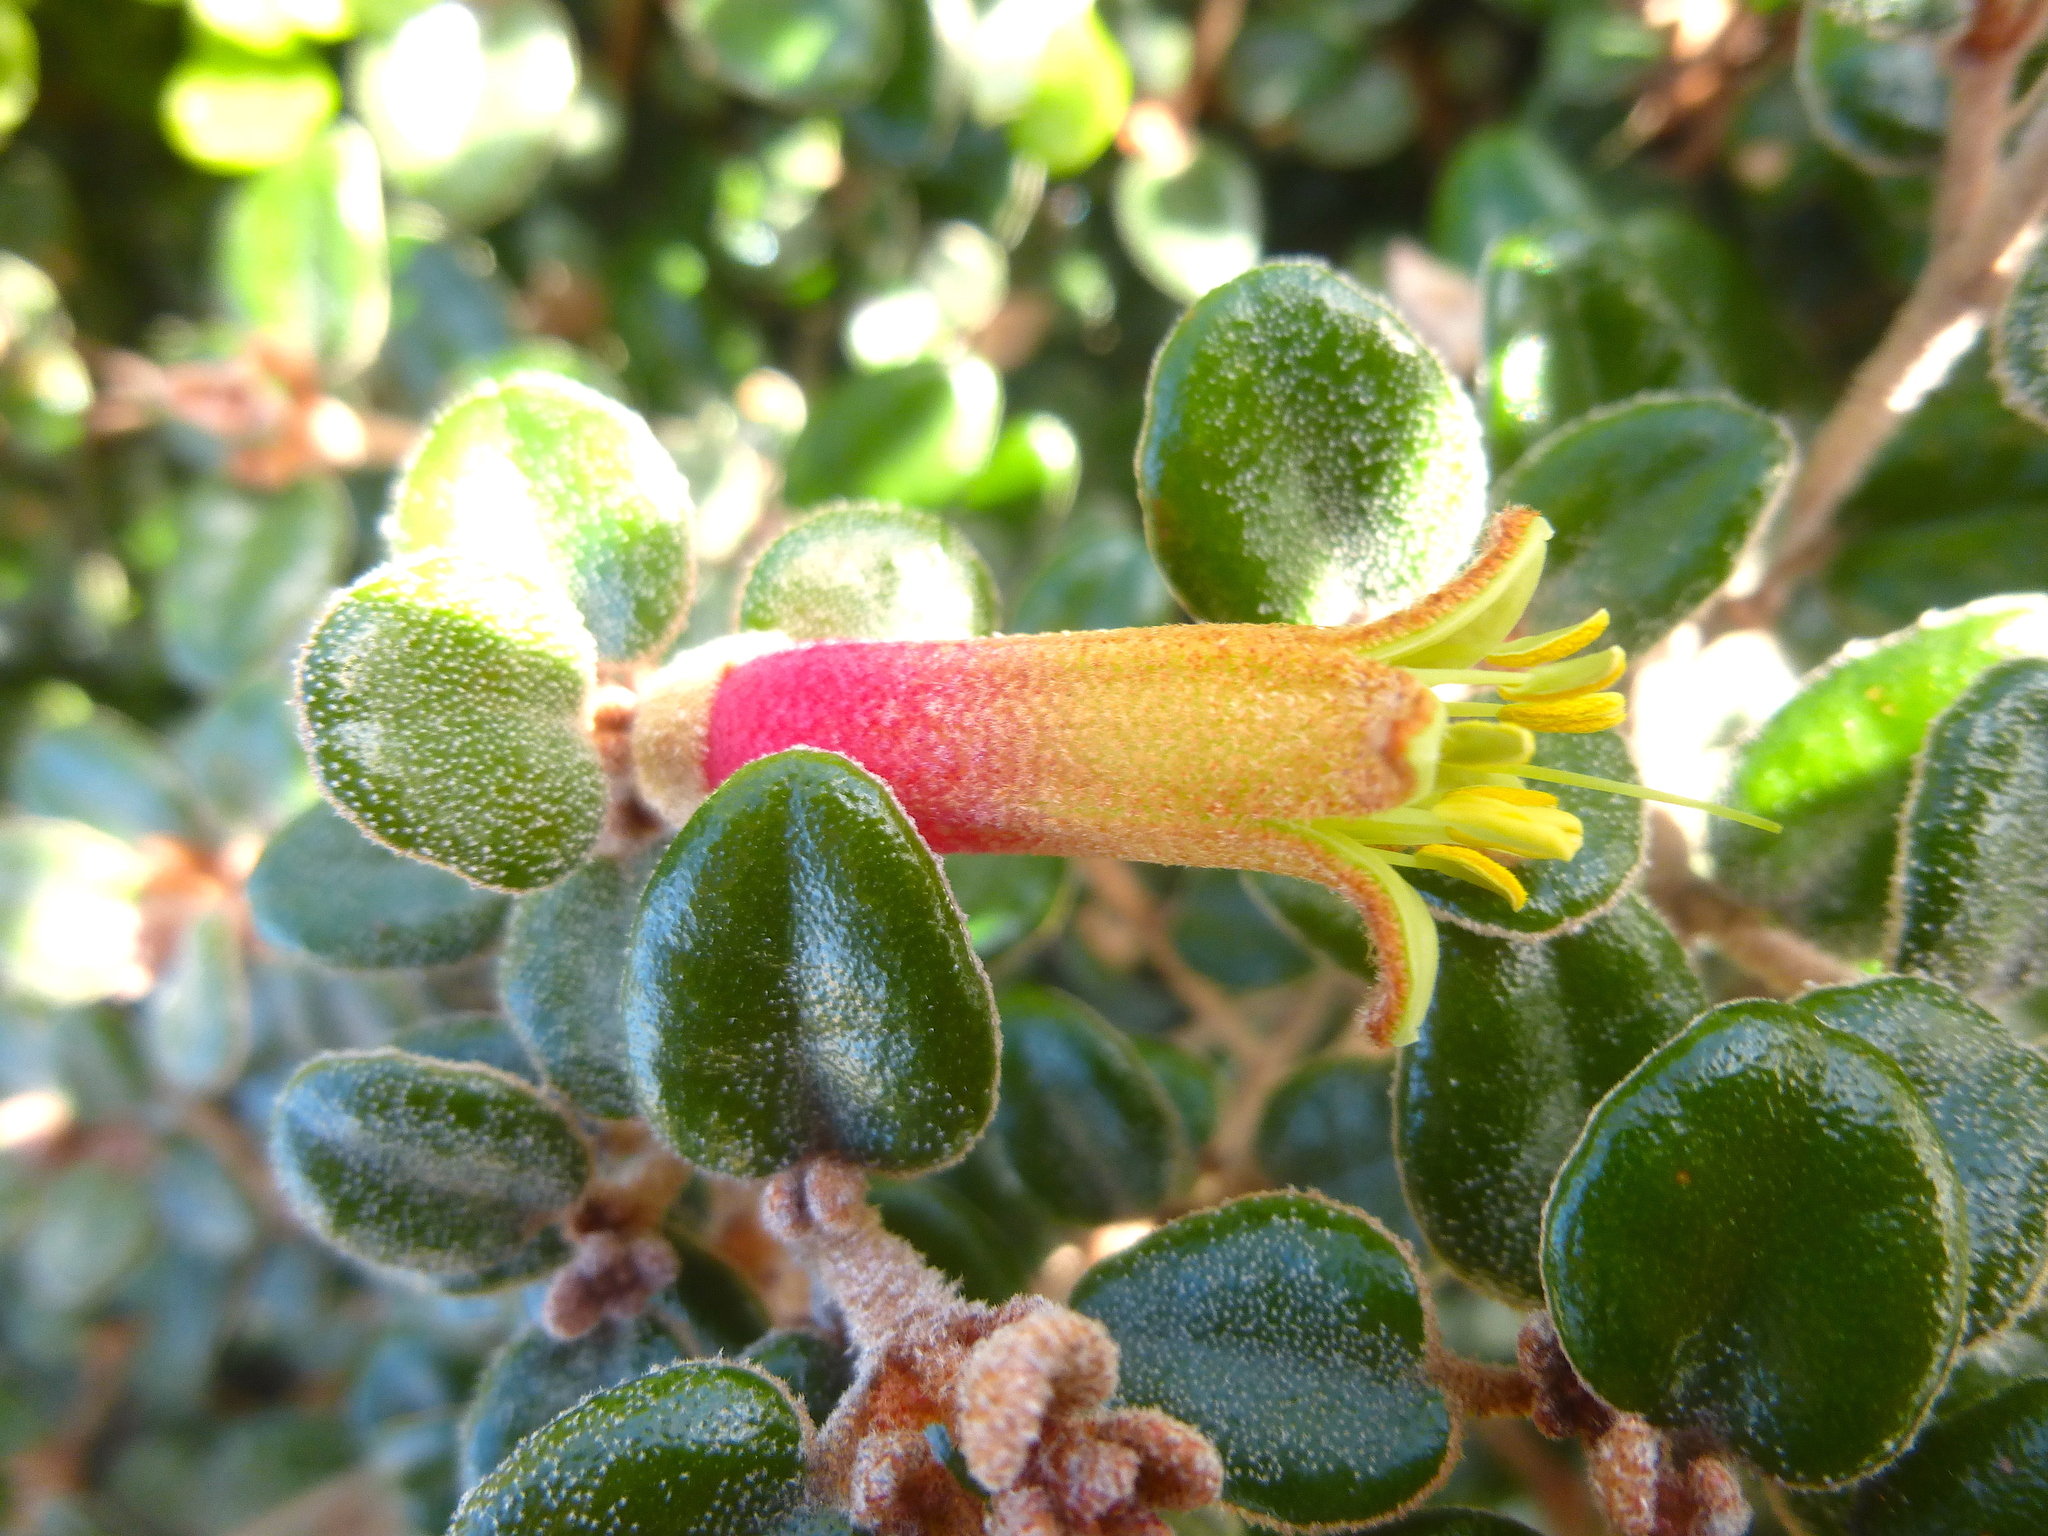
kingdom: Plantae
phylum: Tracheophyta
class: Magnoliopsida
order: Sapindales
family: Rutaceae
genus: Correa
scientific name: Correa backhouseana
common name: Tasmanian-fuchsia
